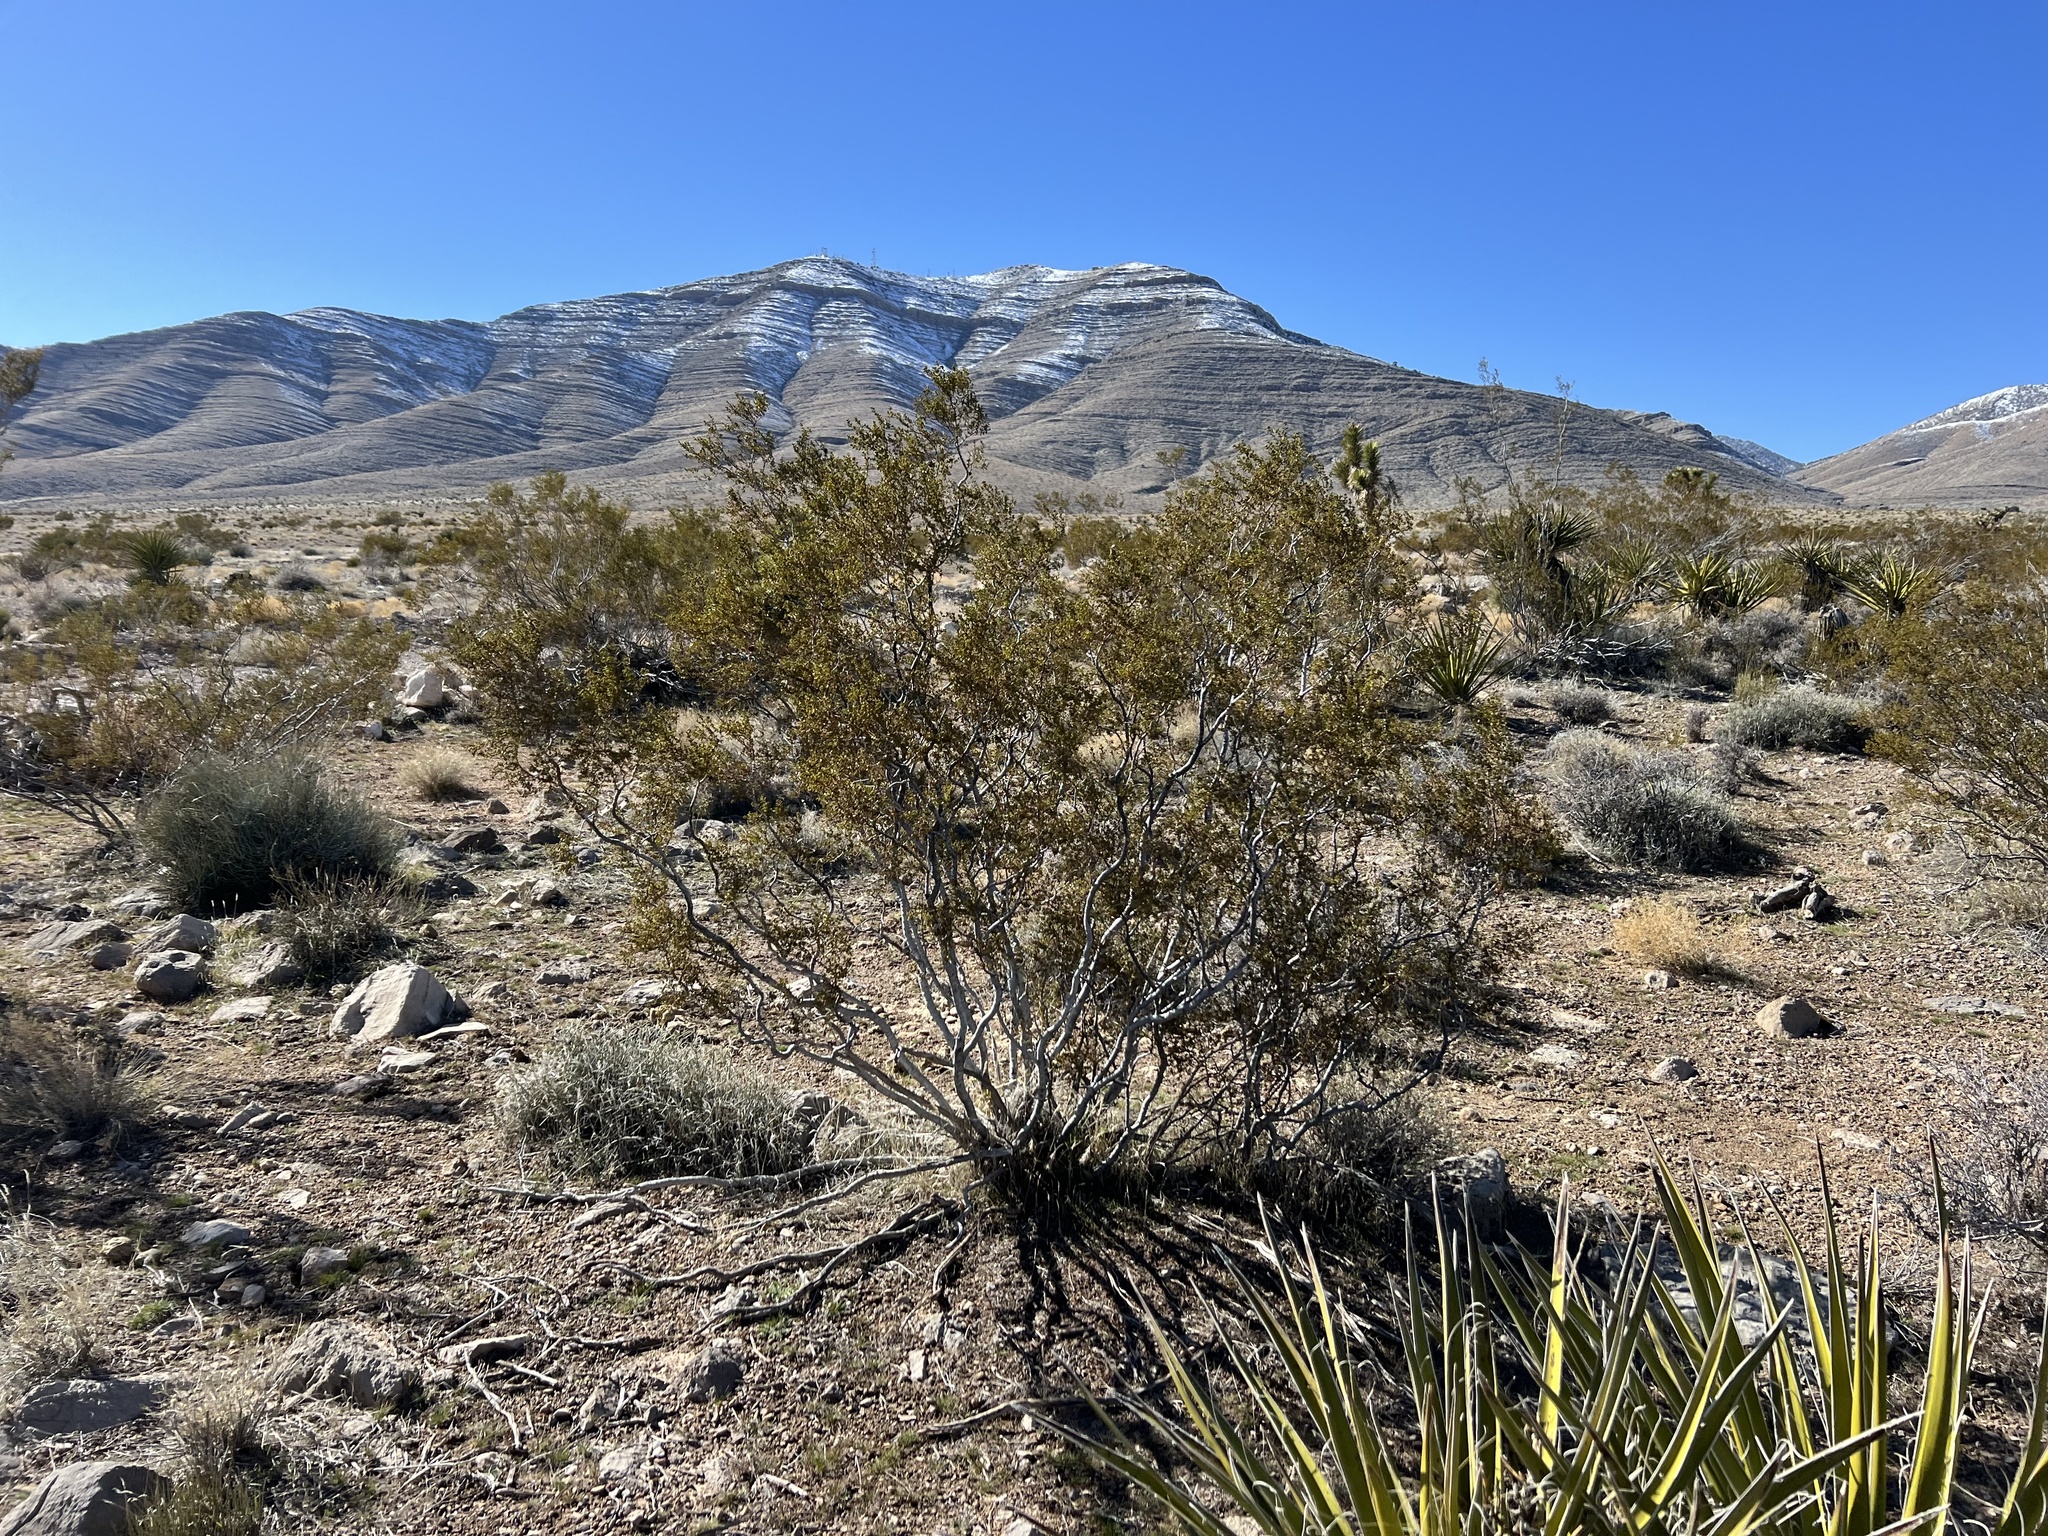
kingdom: Plantae
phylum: Tracheophyta
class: Magnoliopsida
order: Zygophyllales
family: Zygophyllaceae
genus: Larrea
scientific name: Larrea tridentata
